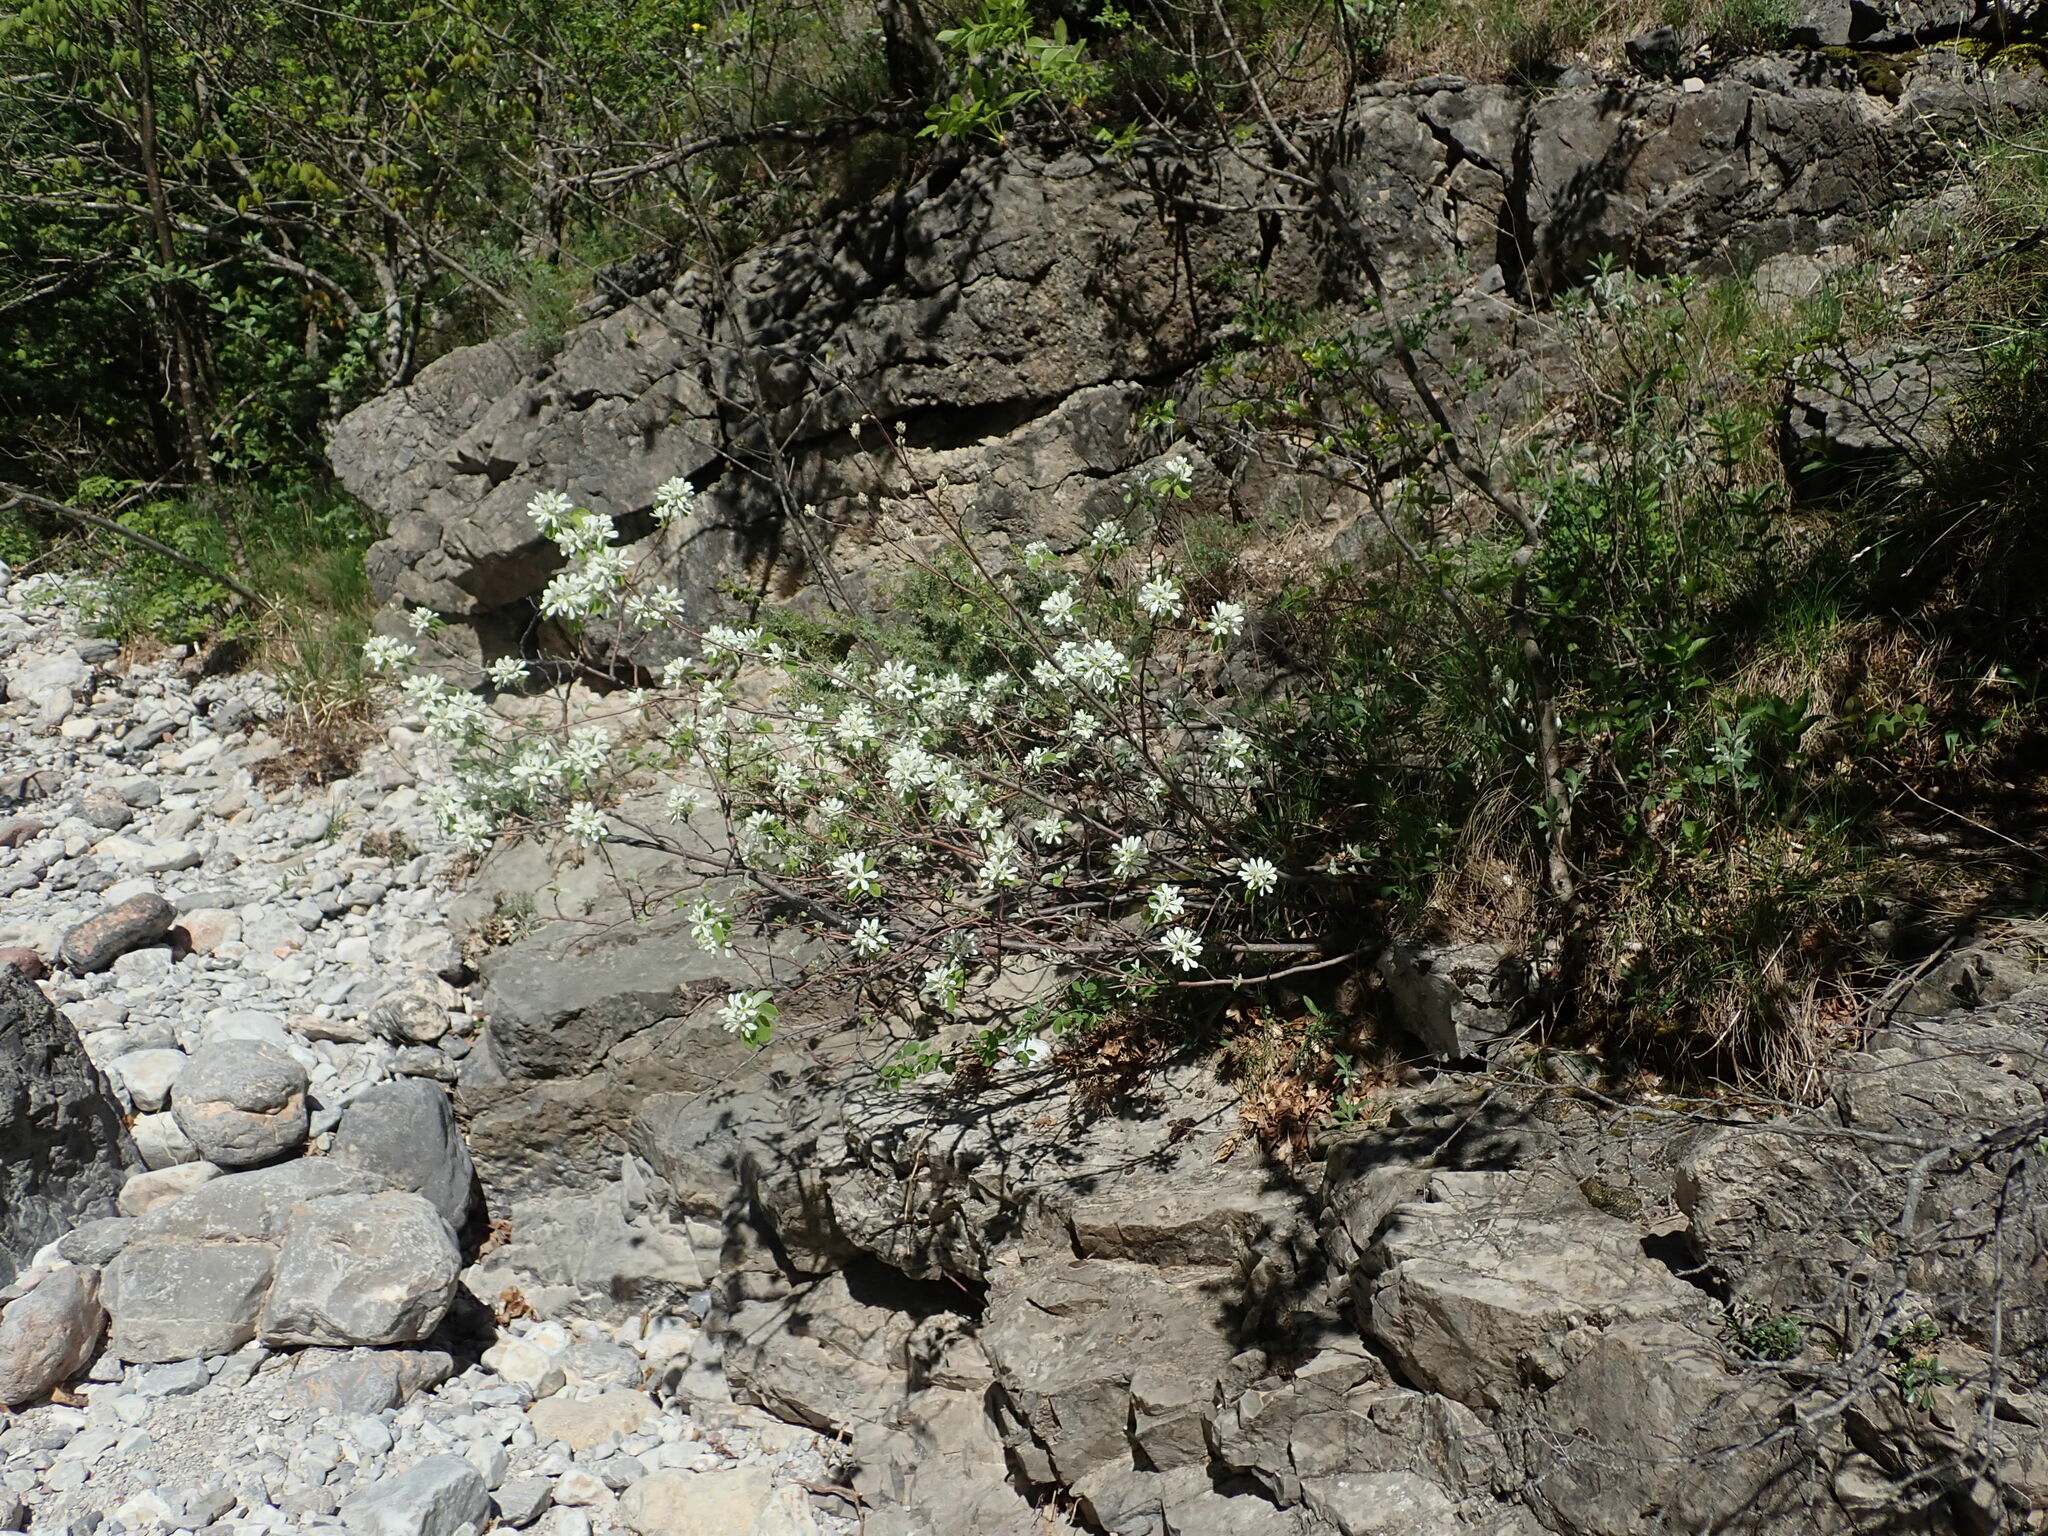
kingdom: Plantae
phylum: Tracheophyta
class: Magnoliopsida
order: Rosales
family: Rosaceae
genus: Amelanchier
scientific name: Amelanchier ovalis
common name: Serviceberry
